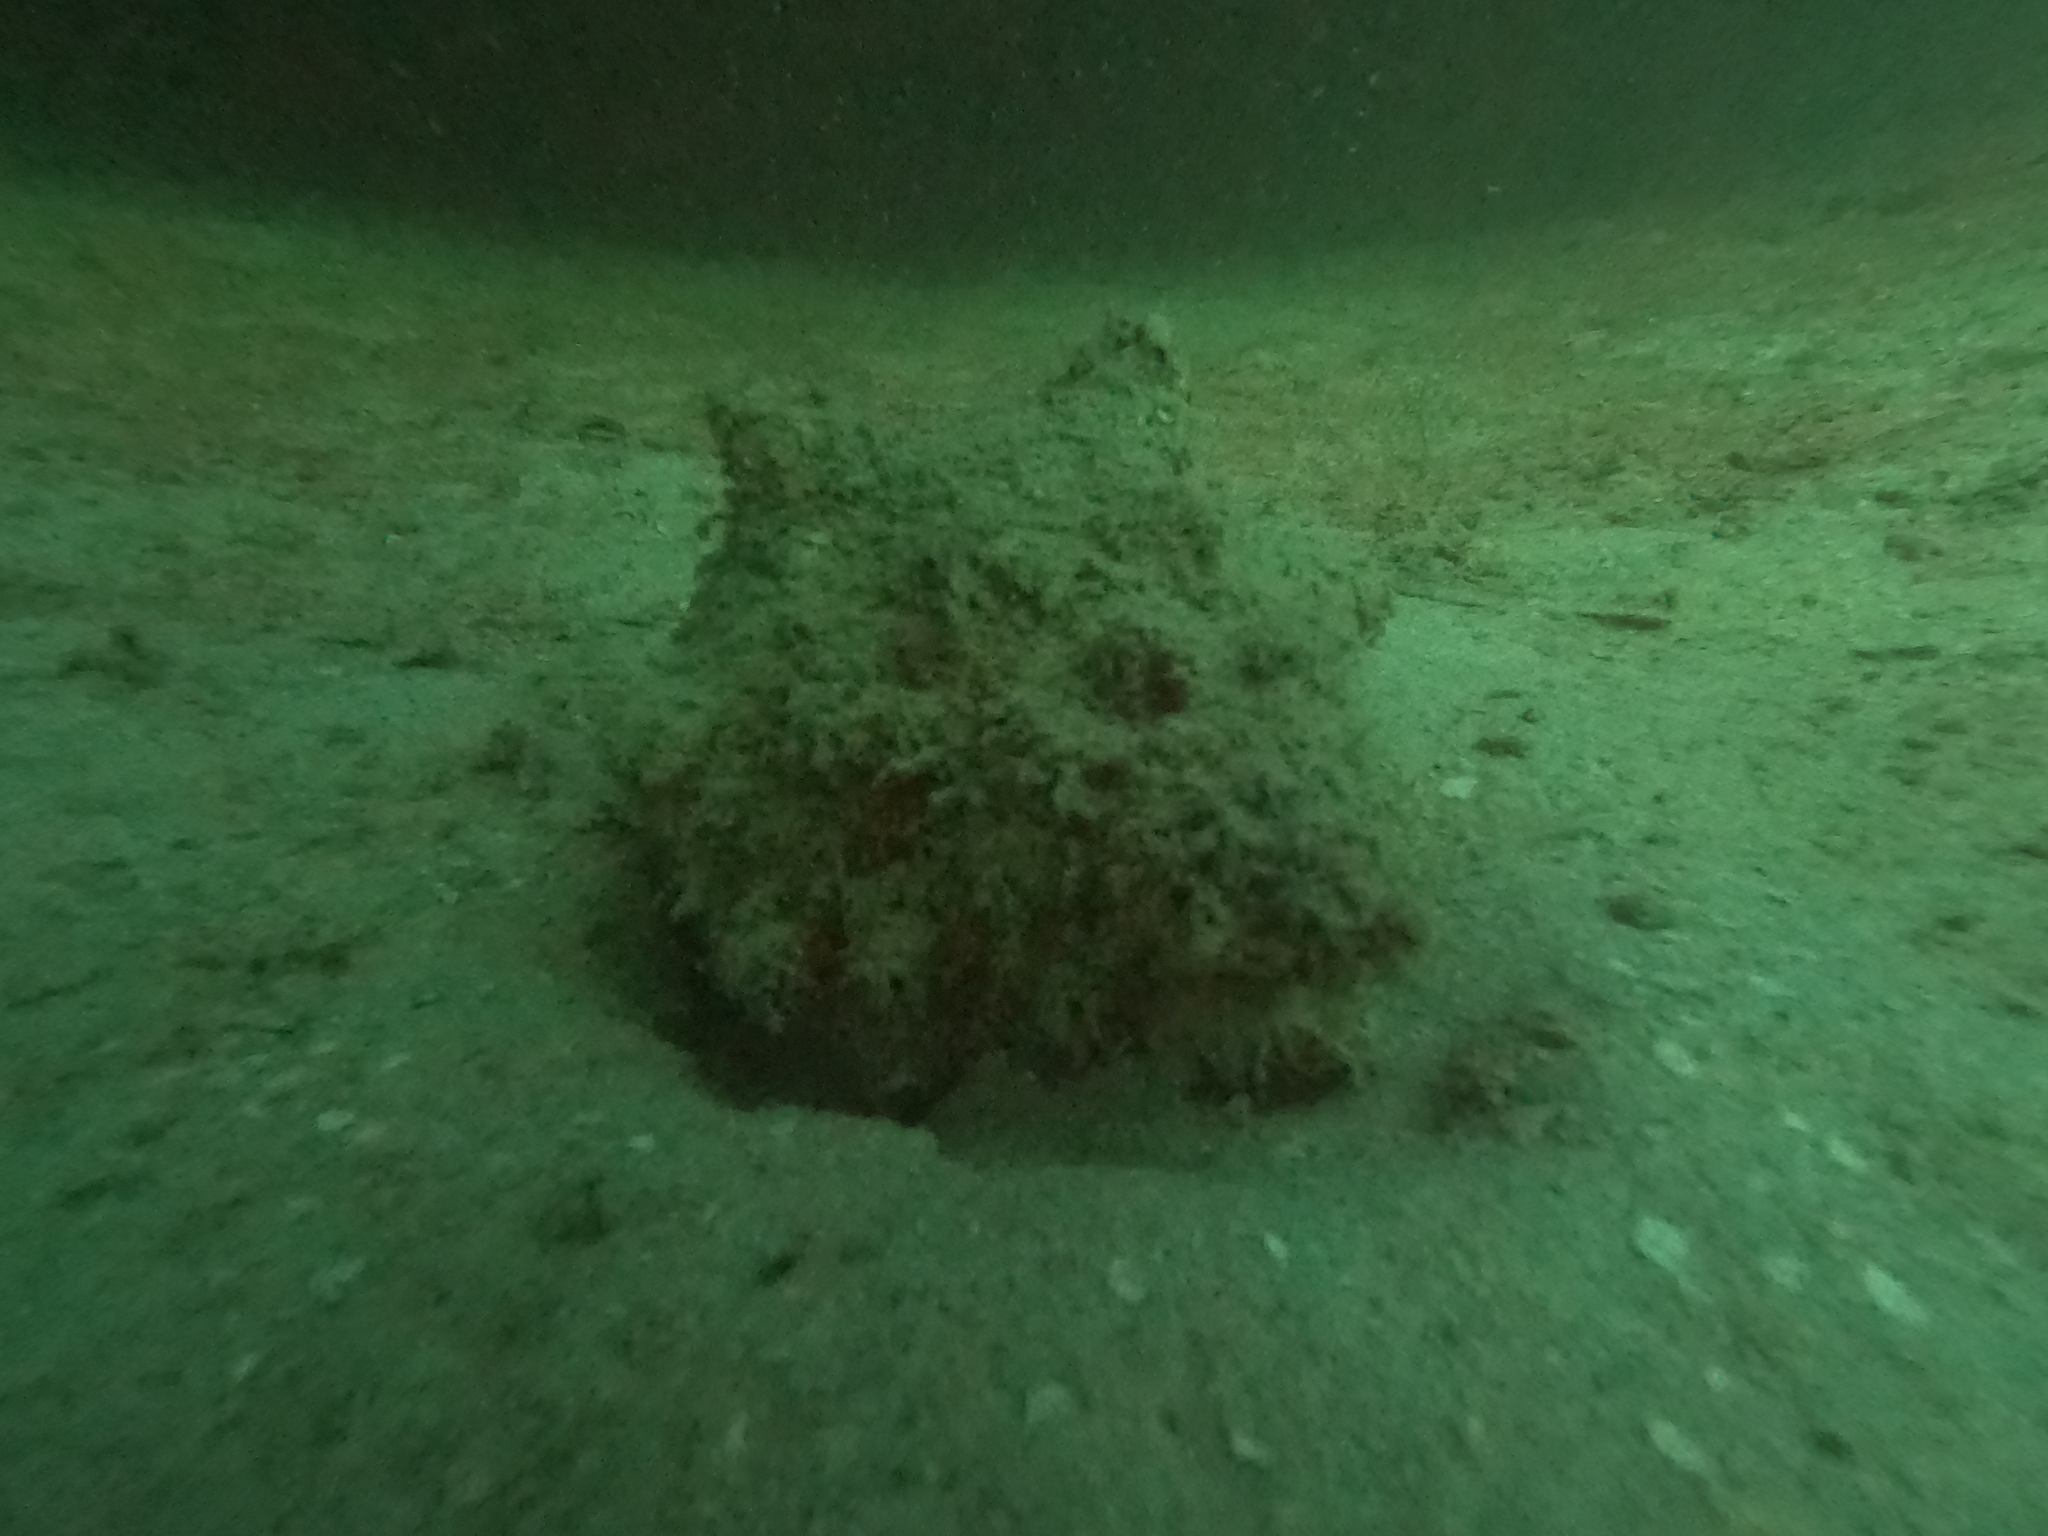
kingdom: Animalia
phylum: Arthropoda
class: Malacostraca
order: Decapoda
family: Diogenidae
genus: Petrochirus
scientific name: Petrochirus diogenes
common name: Giant hermit crab
